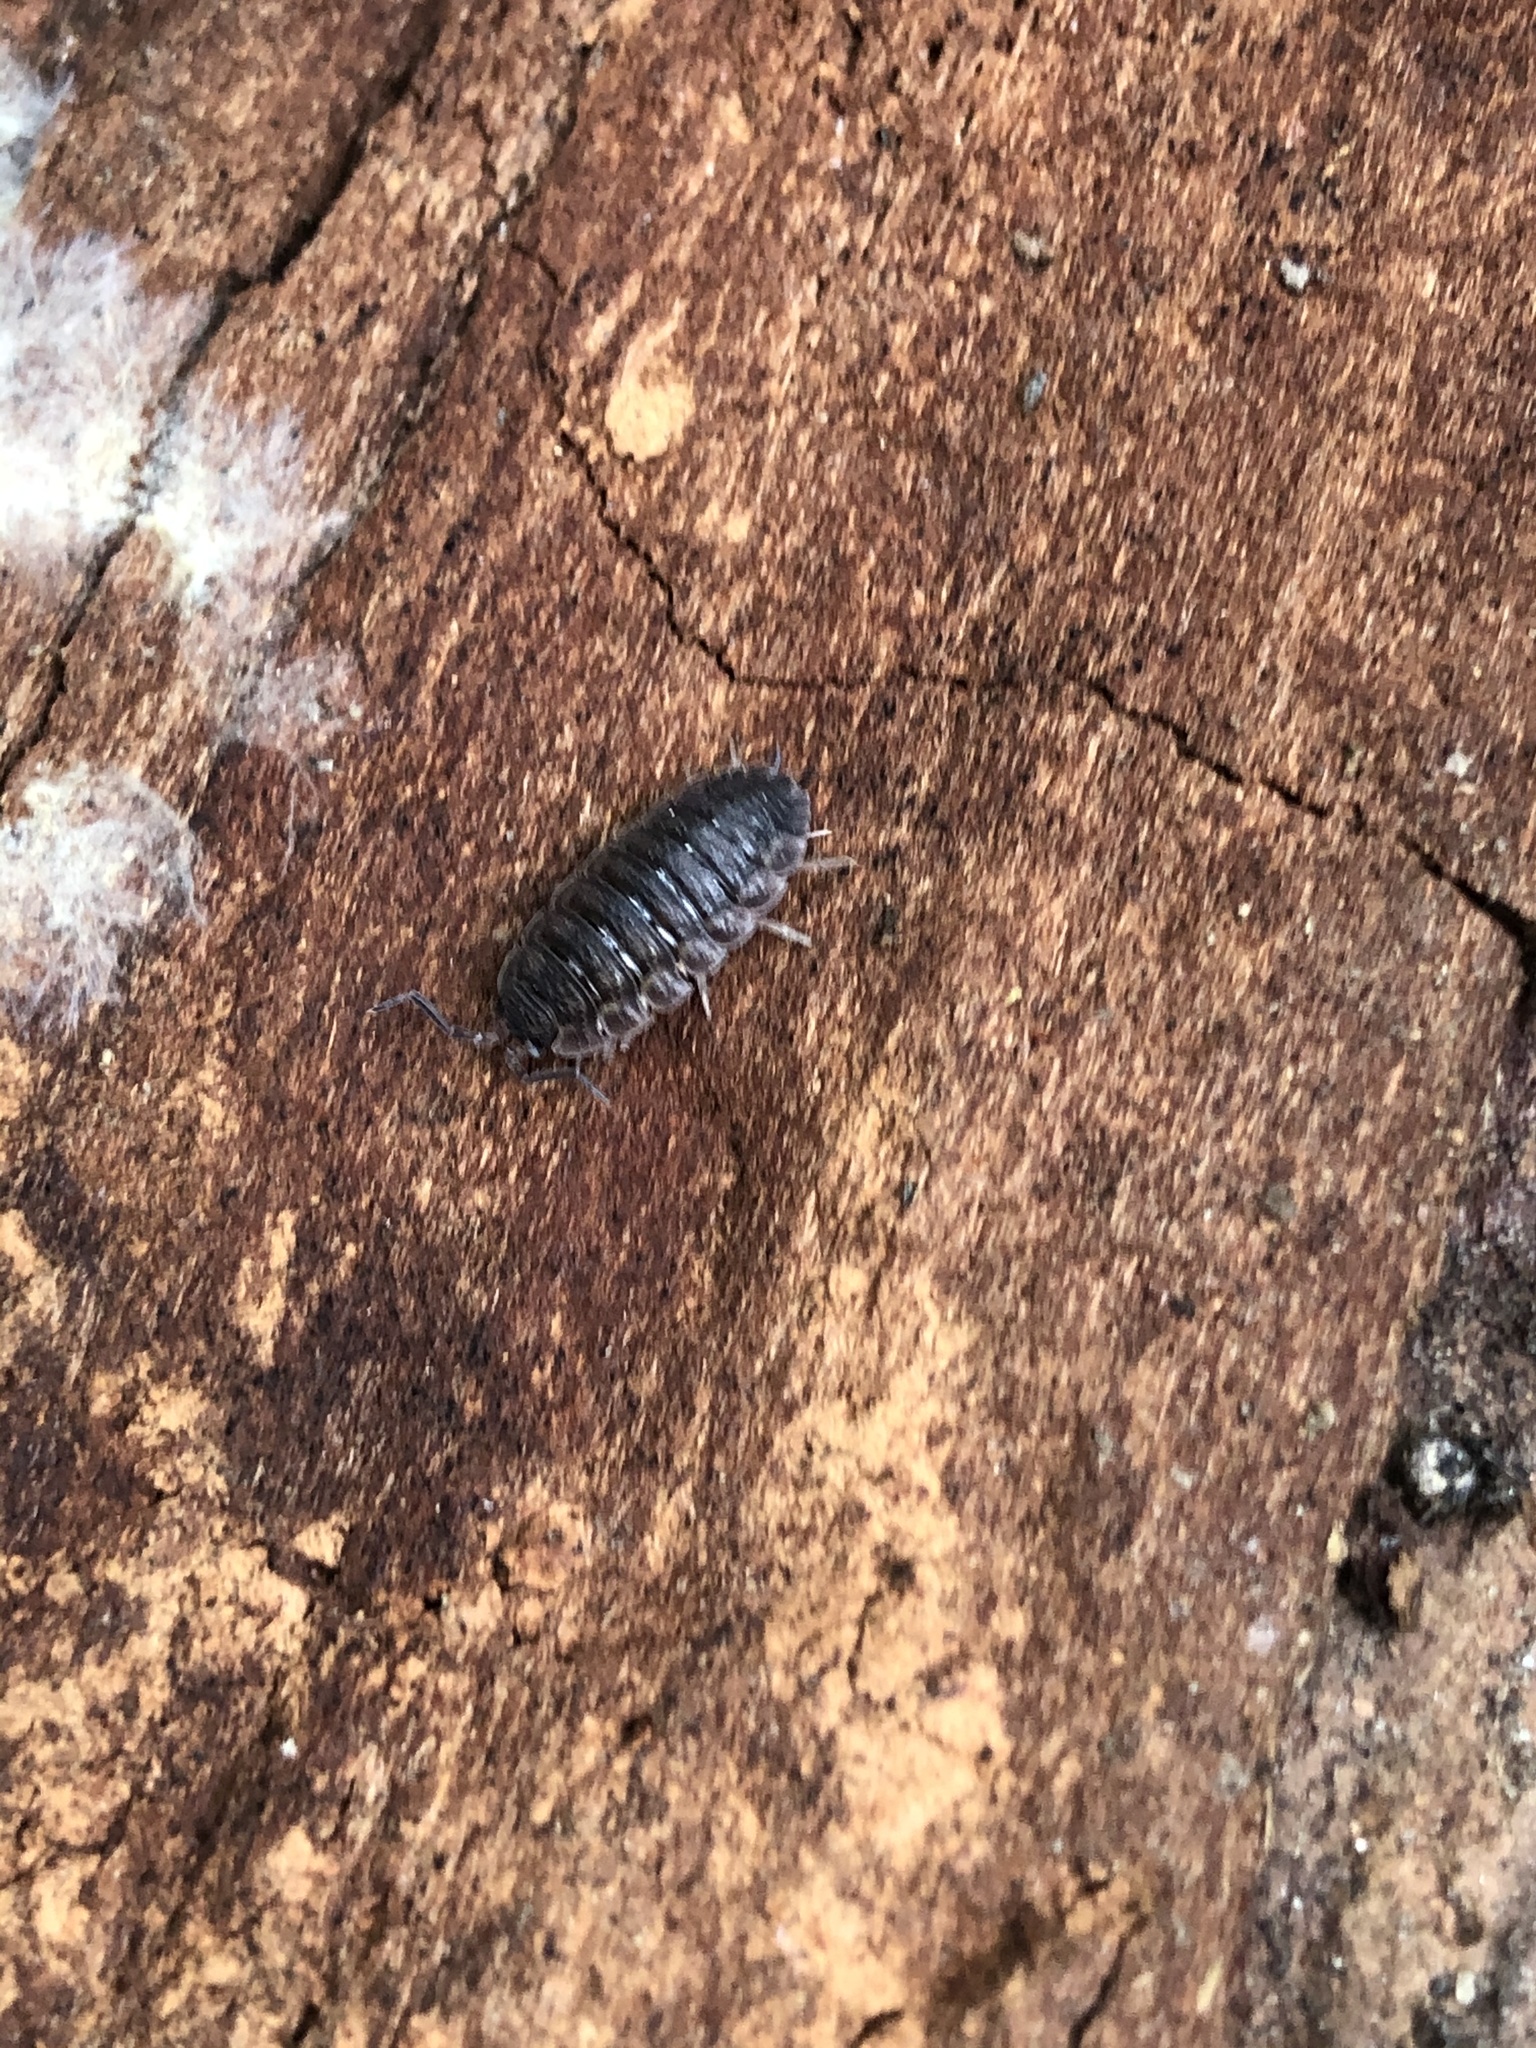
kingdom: Animalia
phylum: Arthropoda
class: Malacostraca
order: Isopoda
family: Porcellionidae
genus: Porcellio
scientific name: Porcellio scaber
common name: Common rough woodlouse
